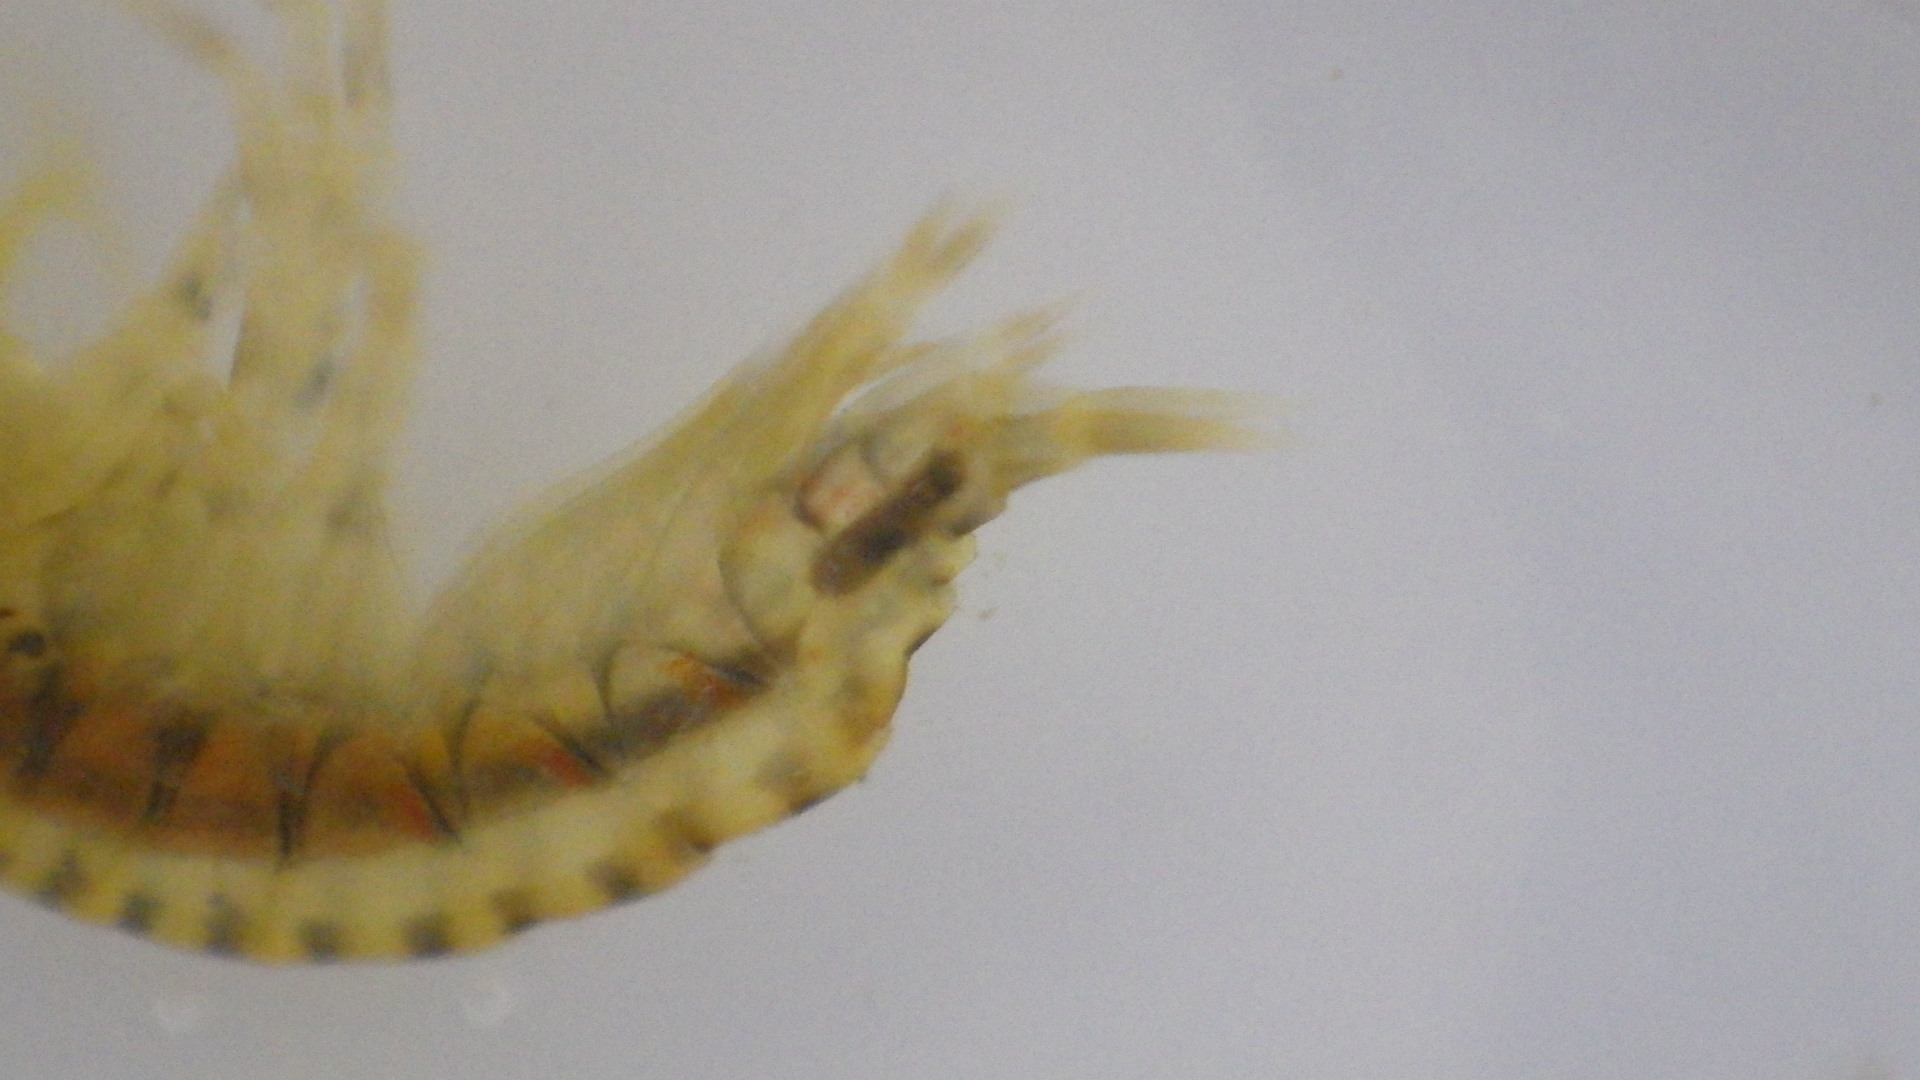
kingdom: Animalia
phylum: Arthropoda
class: Malacostraca
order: Amphipoda
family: Gammaridae
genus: Gammarus
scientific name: Gammarus fasciatus
